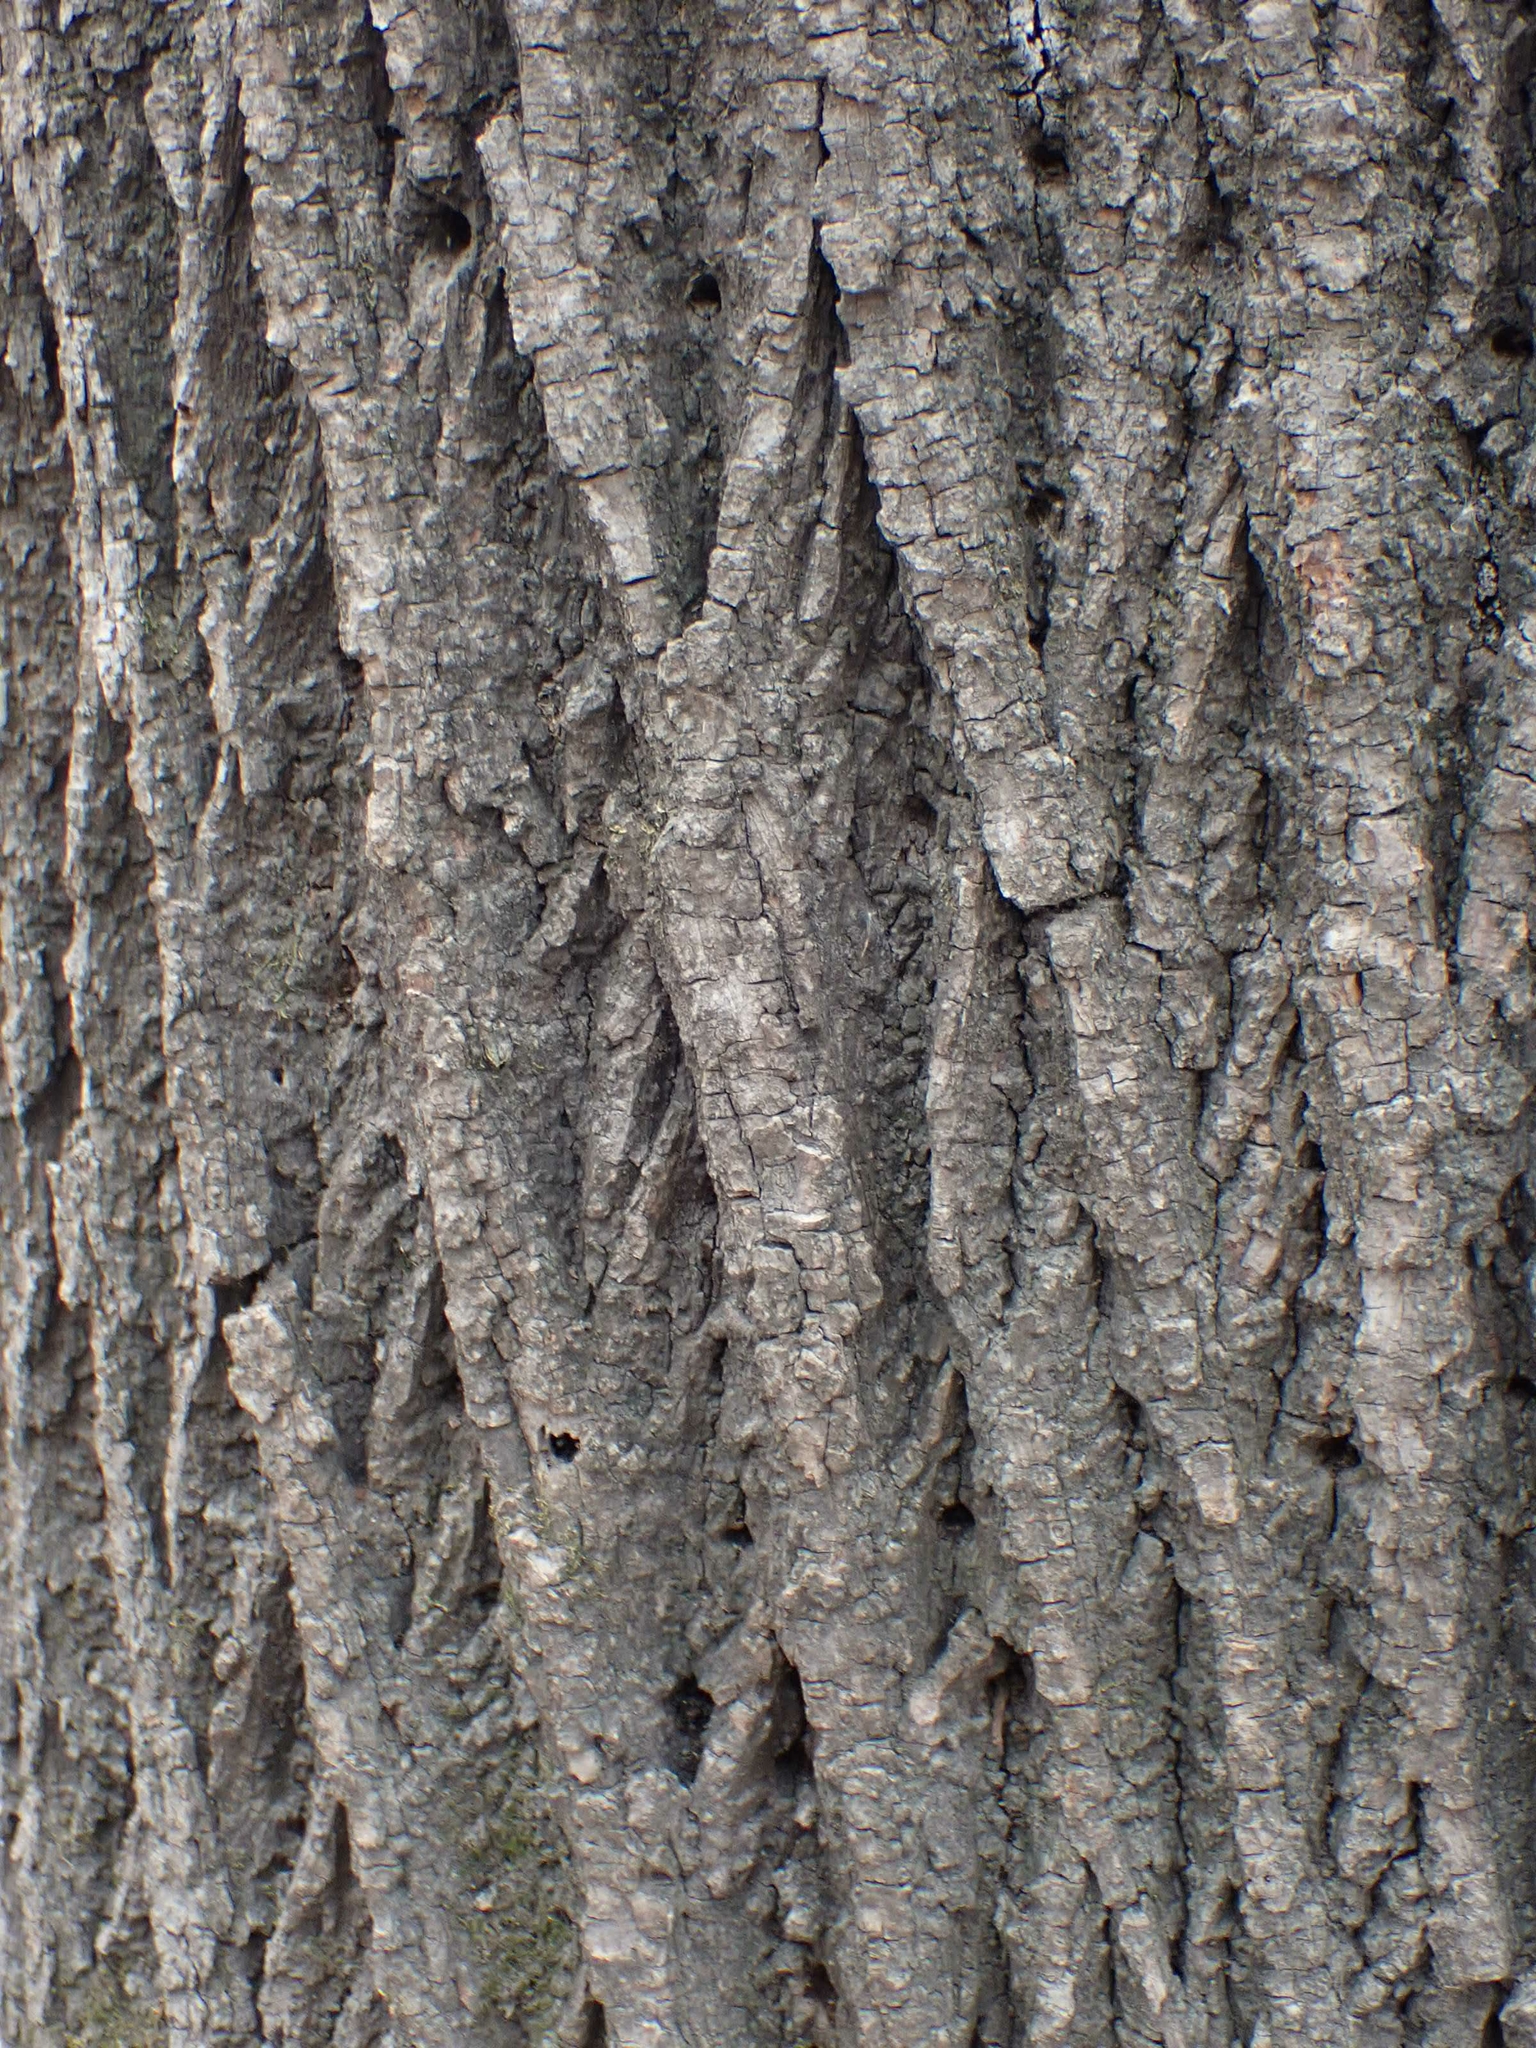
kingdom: Plantae
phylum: Tracheophyta
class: Magnoliopsida
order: Lamiales
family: Oleaceae
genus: Fraxinus
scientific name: Fraxinus pennsylvanica
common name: Green ash
